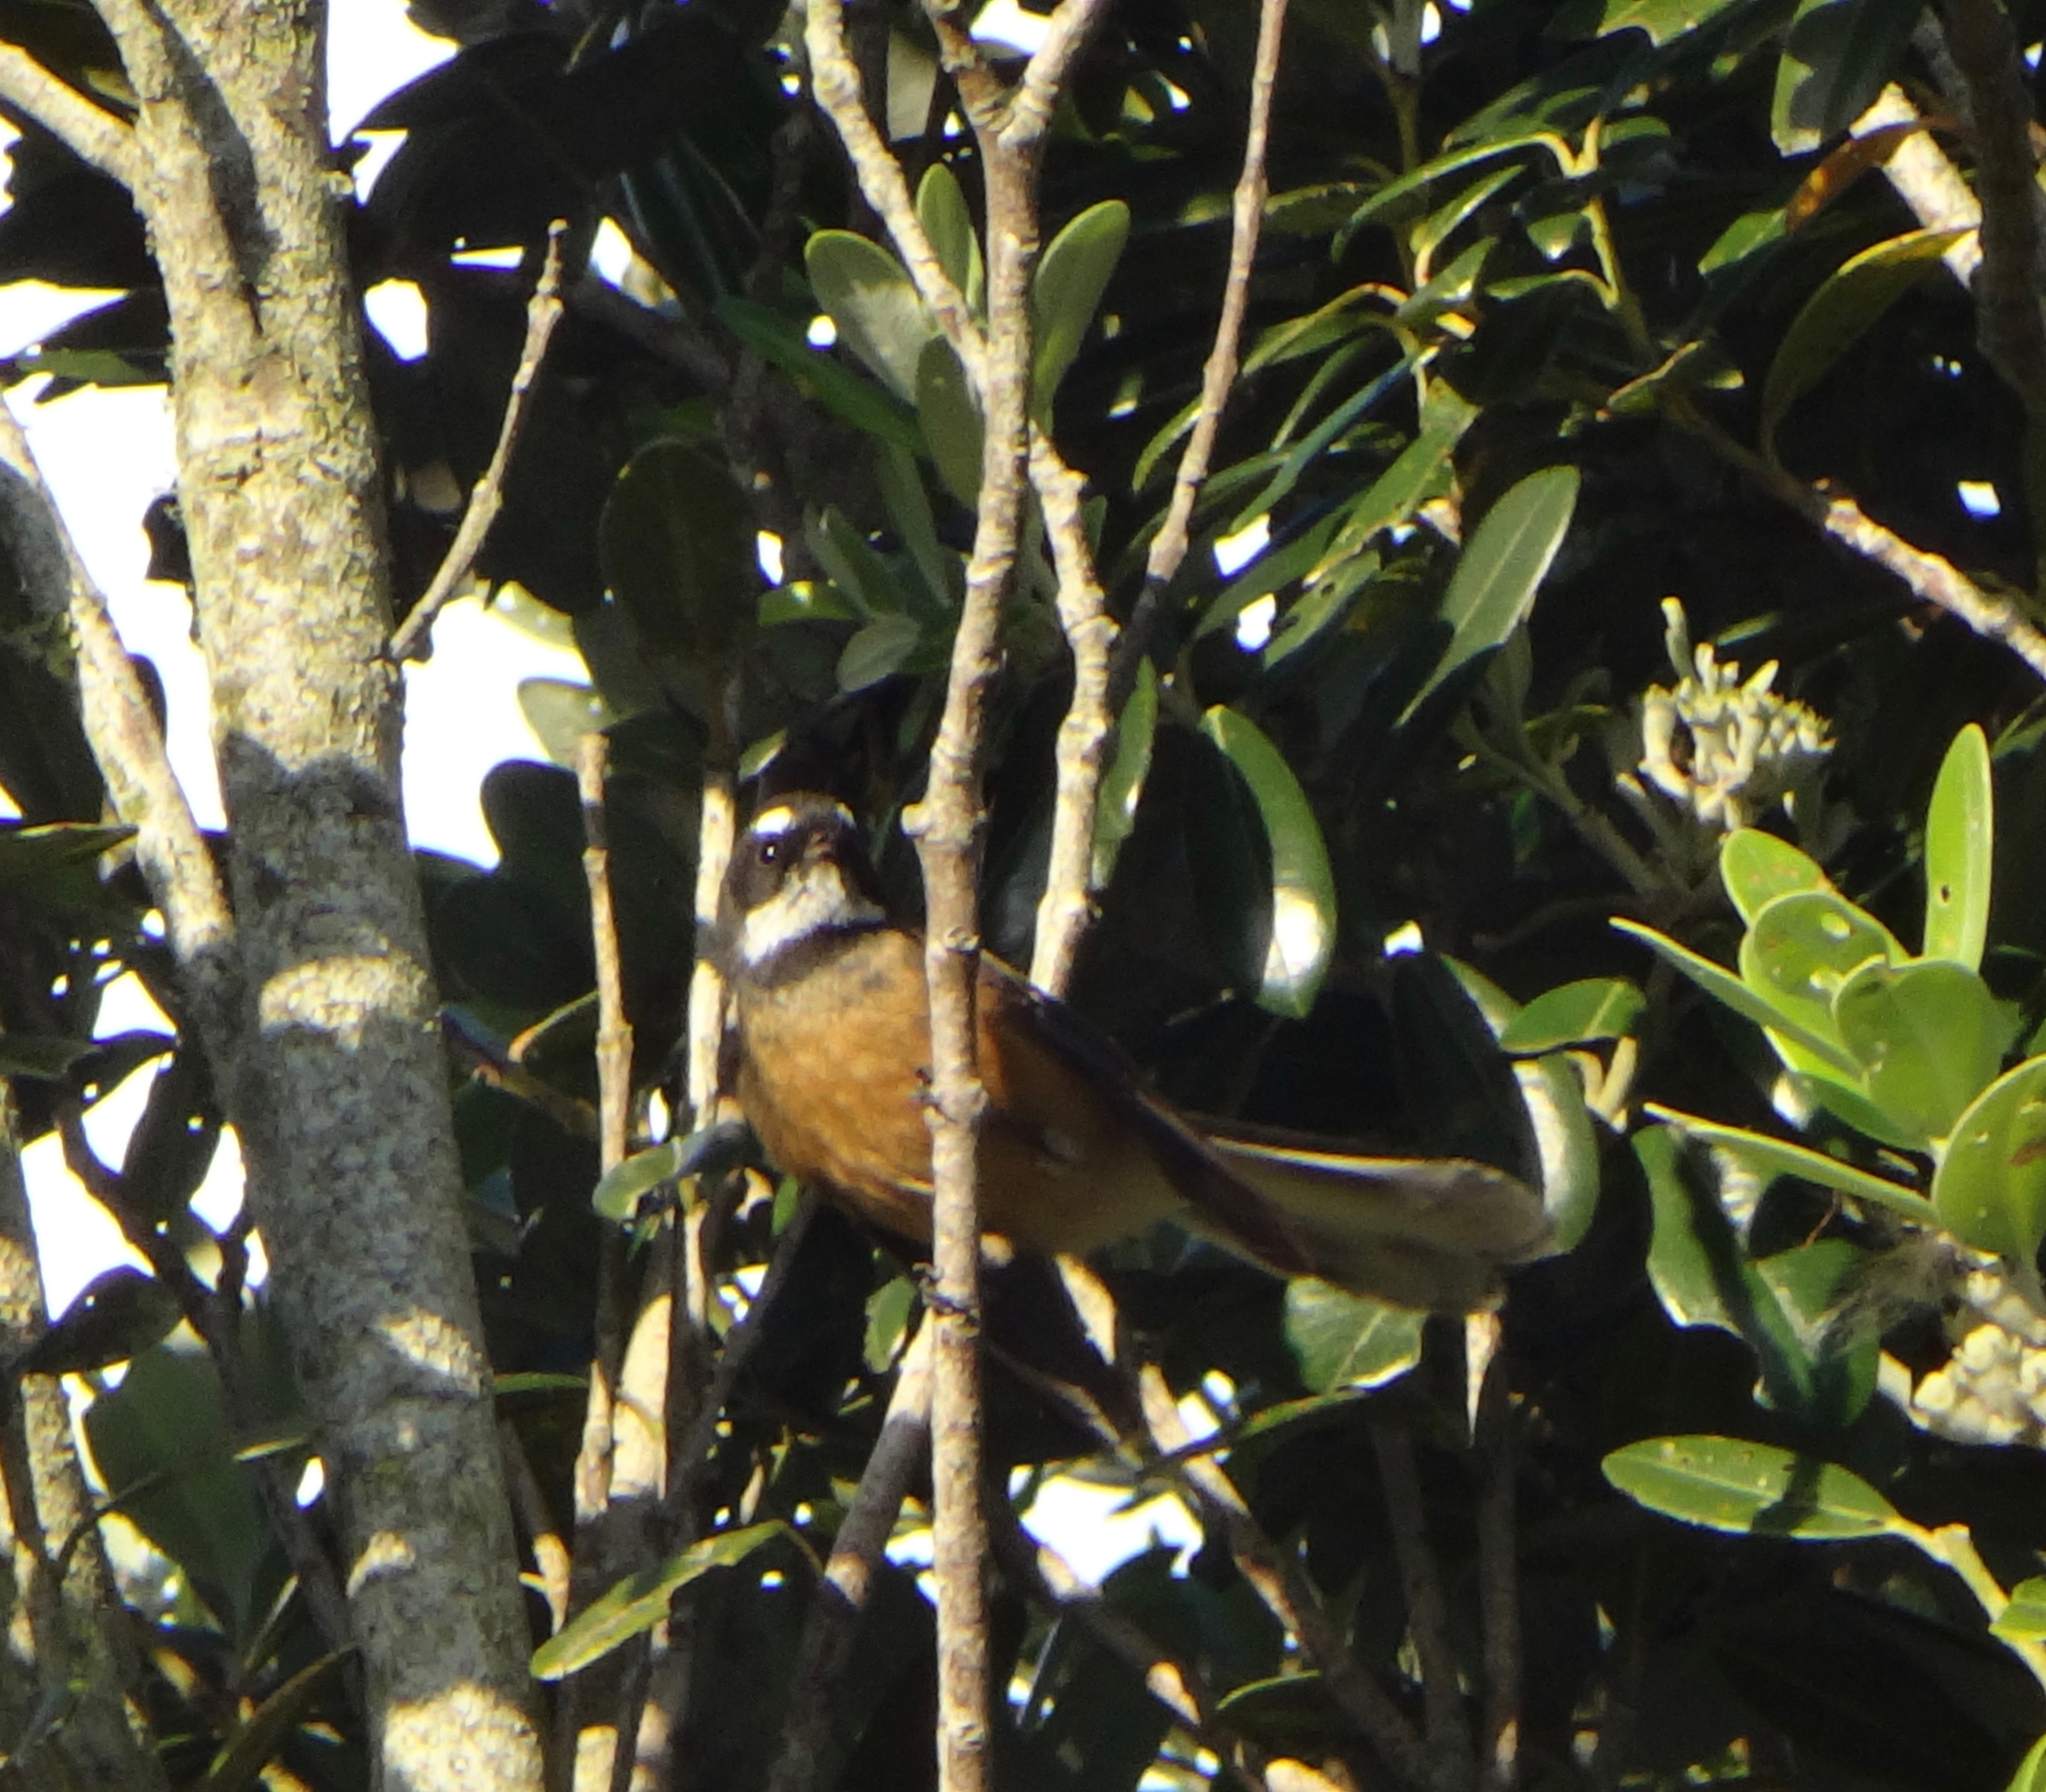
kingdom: Animalia
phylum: Chordata
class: Aves
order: Passeriformes
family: Rhipiduridae
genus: Rhipidura
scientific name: Rhipidura fuliginosa
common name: New zealand fantail
